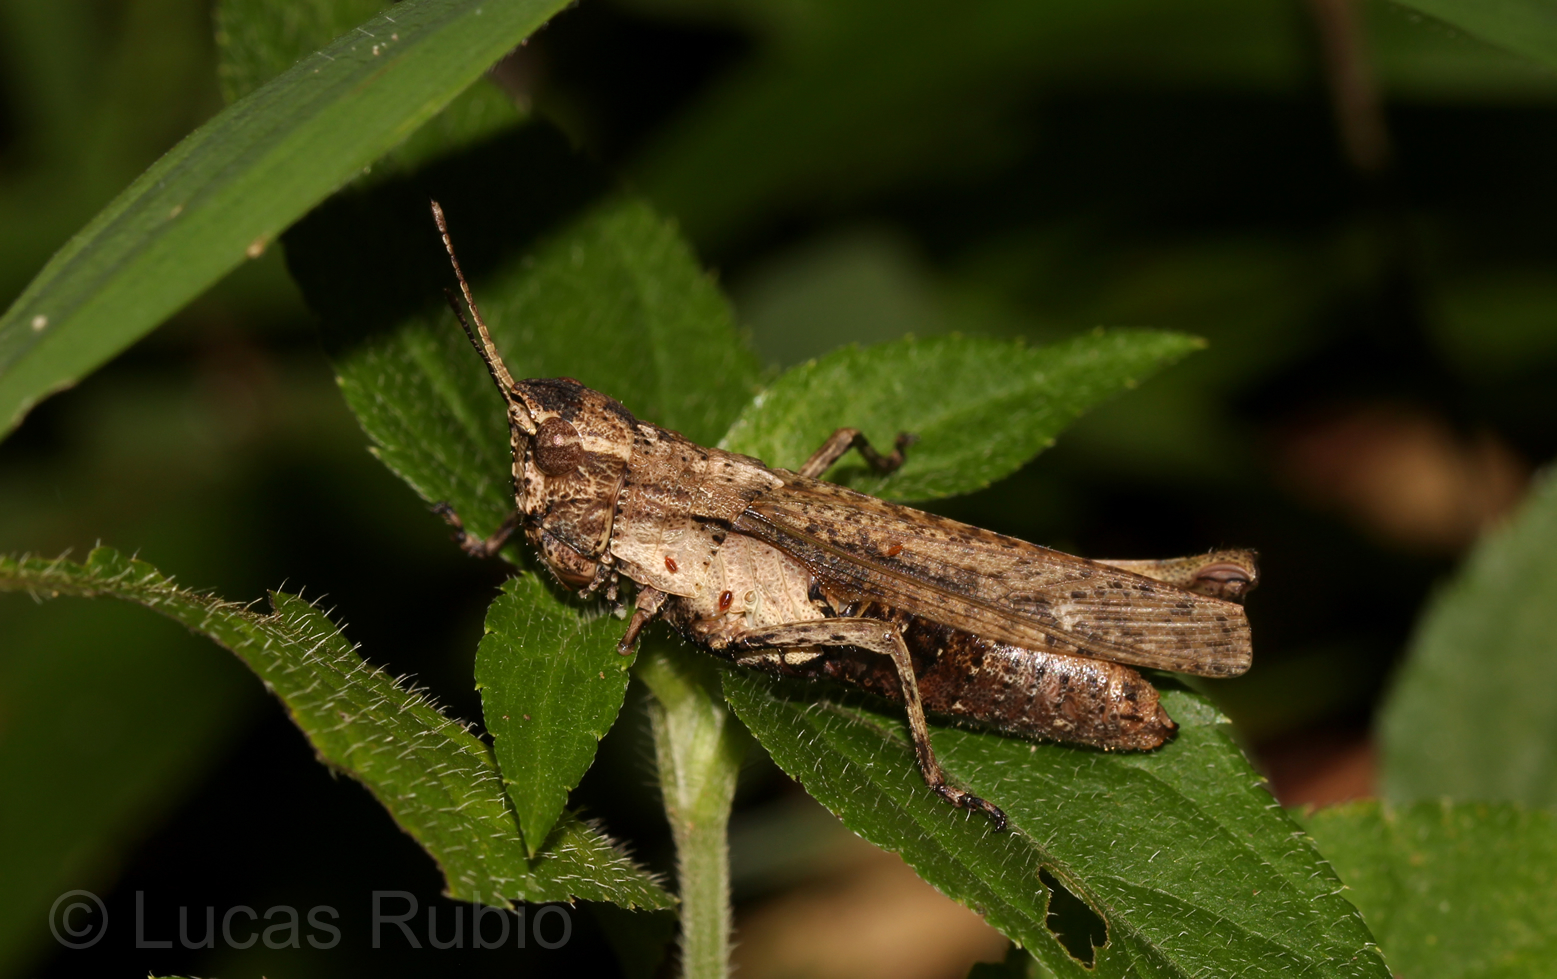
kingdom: Animalia
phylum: Arthropoda
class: Insecta
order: Orthoptera
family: Acrididae
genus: Peruvia
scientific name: Peruvia nigromarginata
